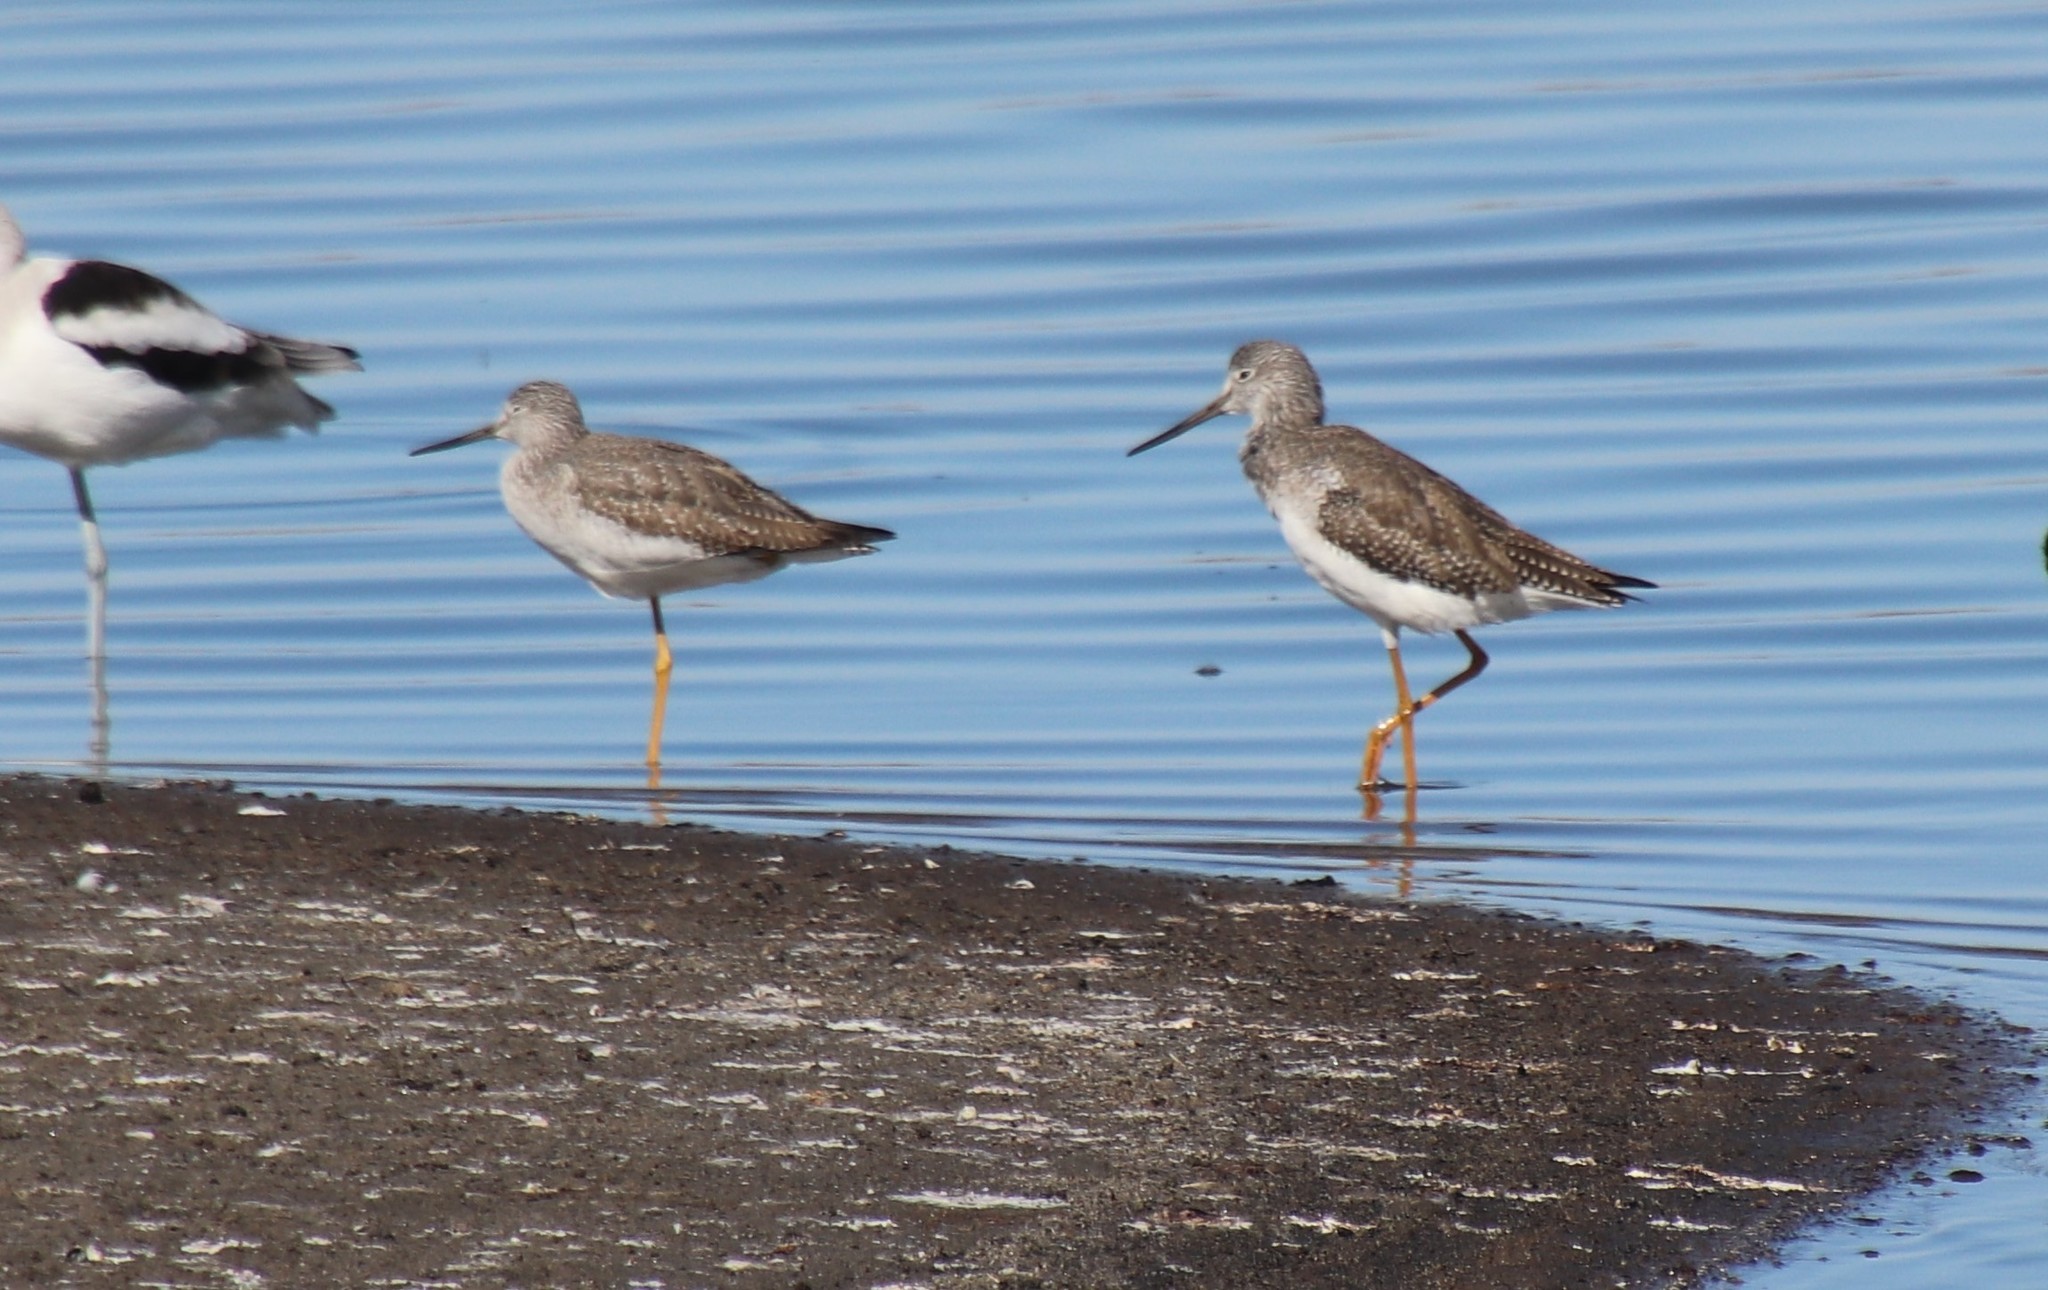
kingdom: Animalia
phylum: Chordata
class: Aves
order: Charadriiformes
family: Scolopacidae
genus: Tringa
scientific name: Tringa melanoleuca
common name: Greater yellowlegs
